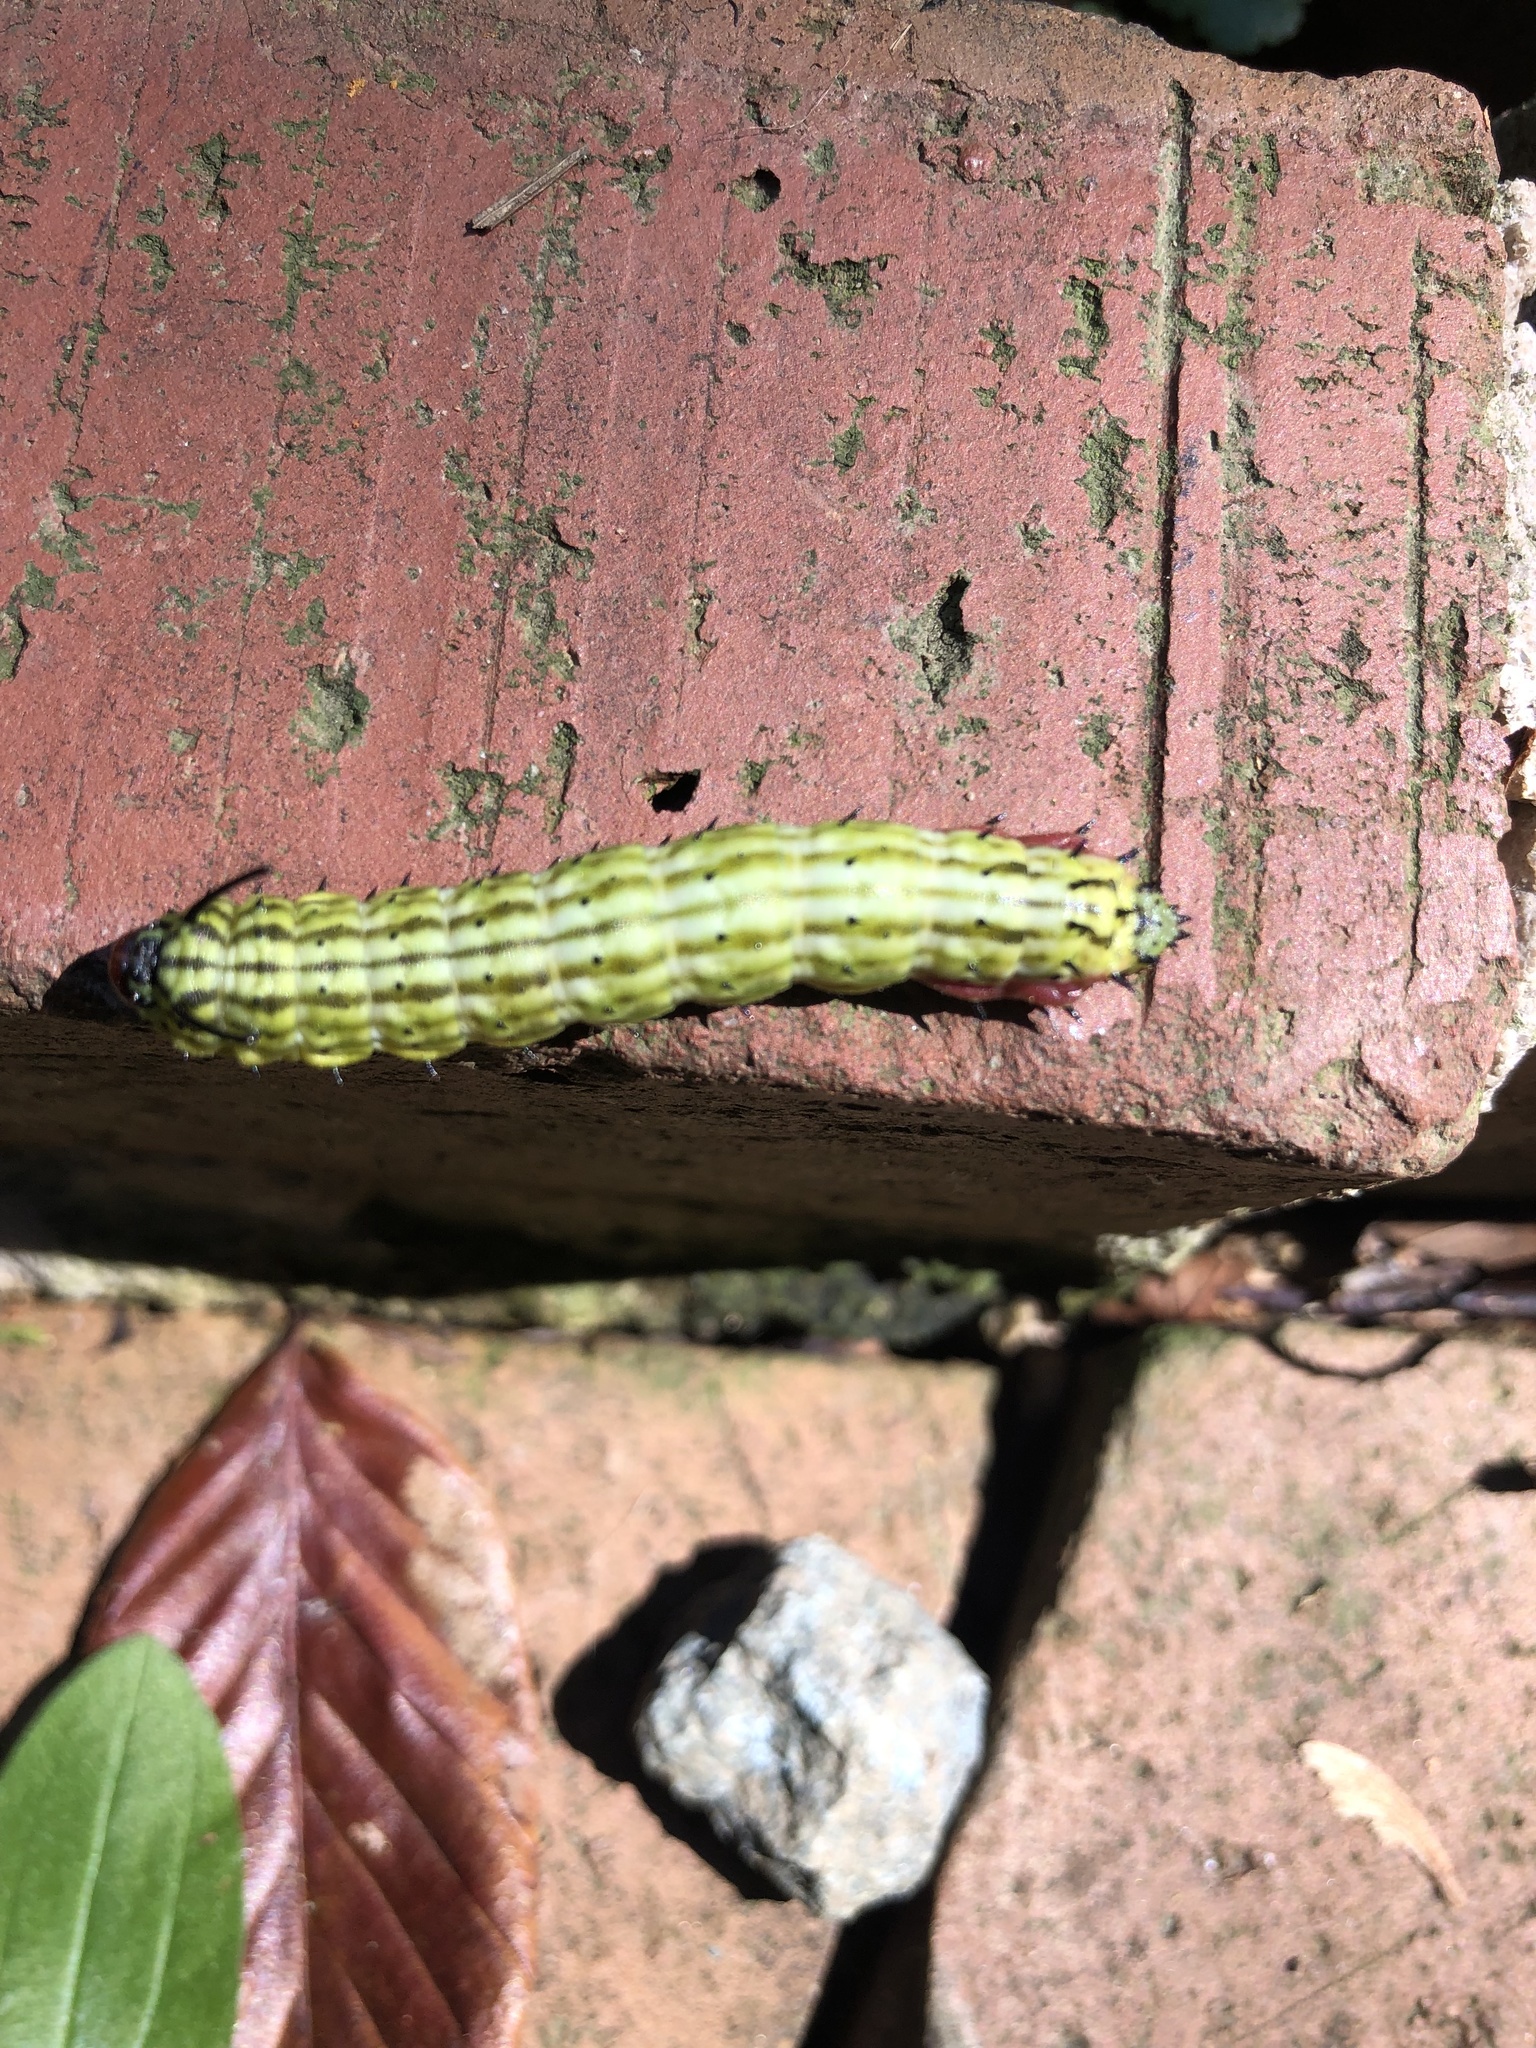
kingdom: Animalia
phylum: Arthropoda
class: Insecta
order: Lepidoptera
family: Saturniidae
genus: Dryocampa
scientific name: Dryocampa rubicunda
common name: Rosy maple moth
